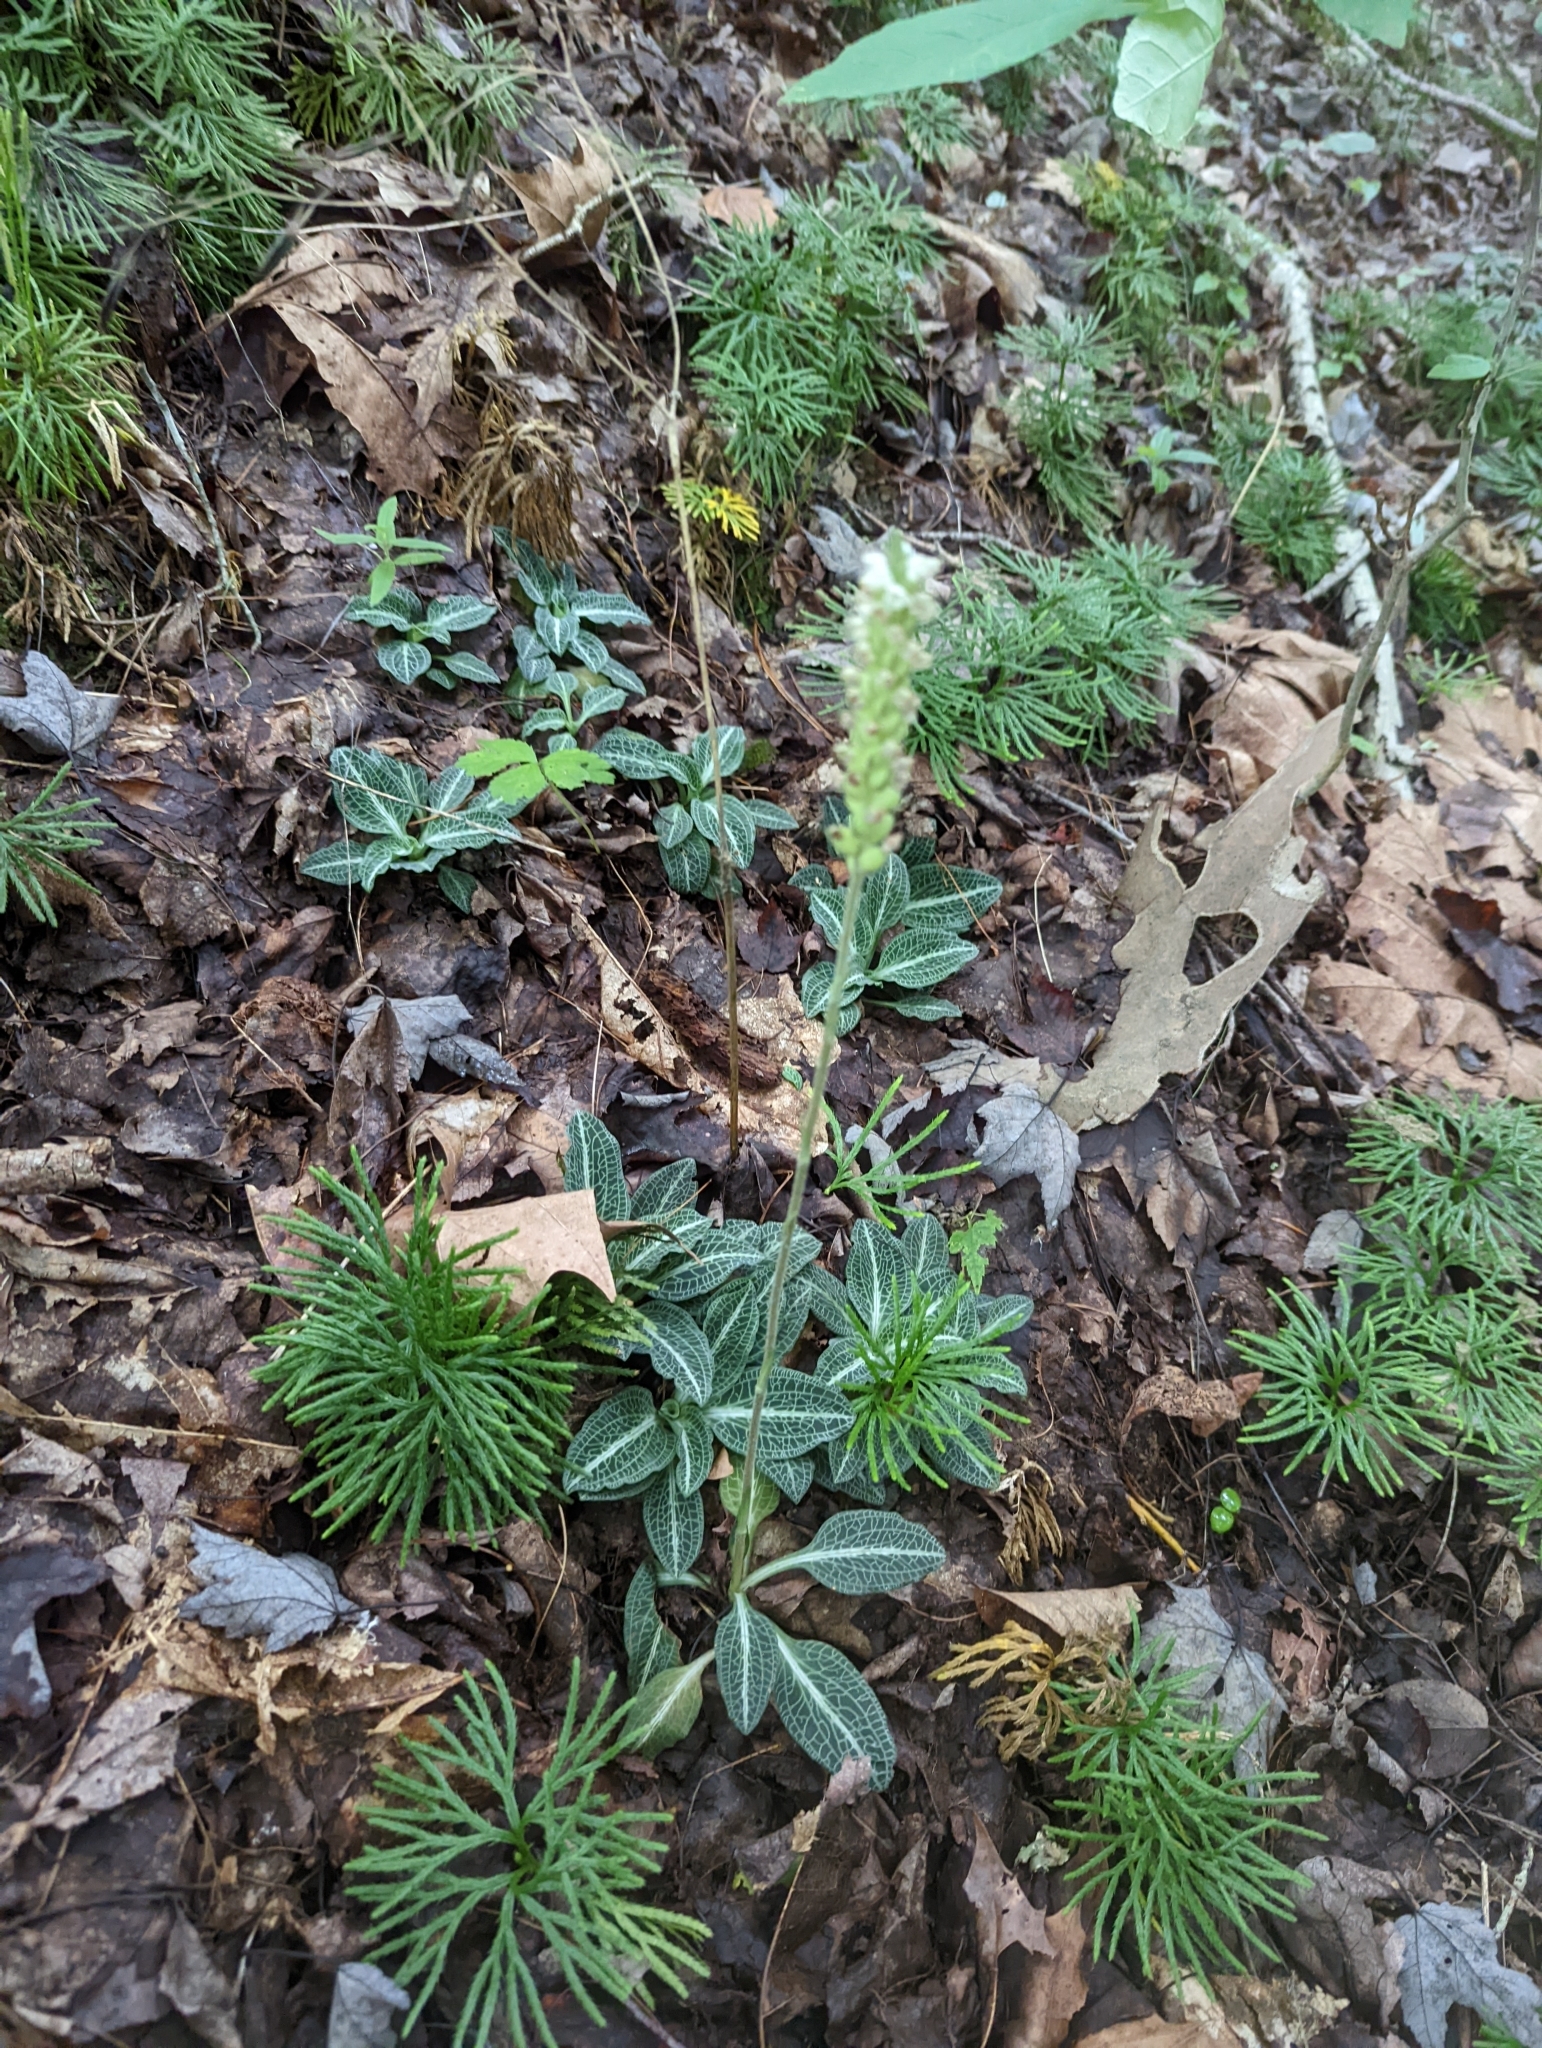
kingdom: Plantae
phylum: Tracheophyta
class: Liliopsida
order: Asparagales
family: Orchidaceae
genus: Goodyera
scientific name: Goodyera pubescens
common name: Downy rattlesnake-plantain
